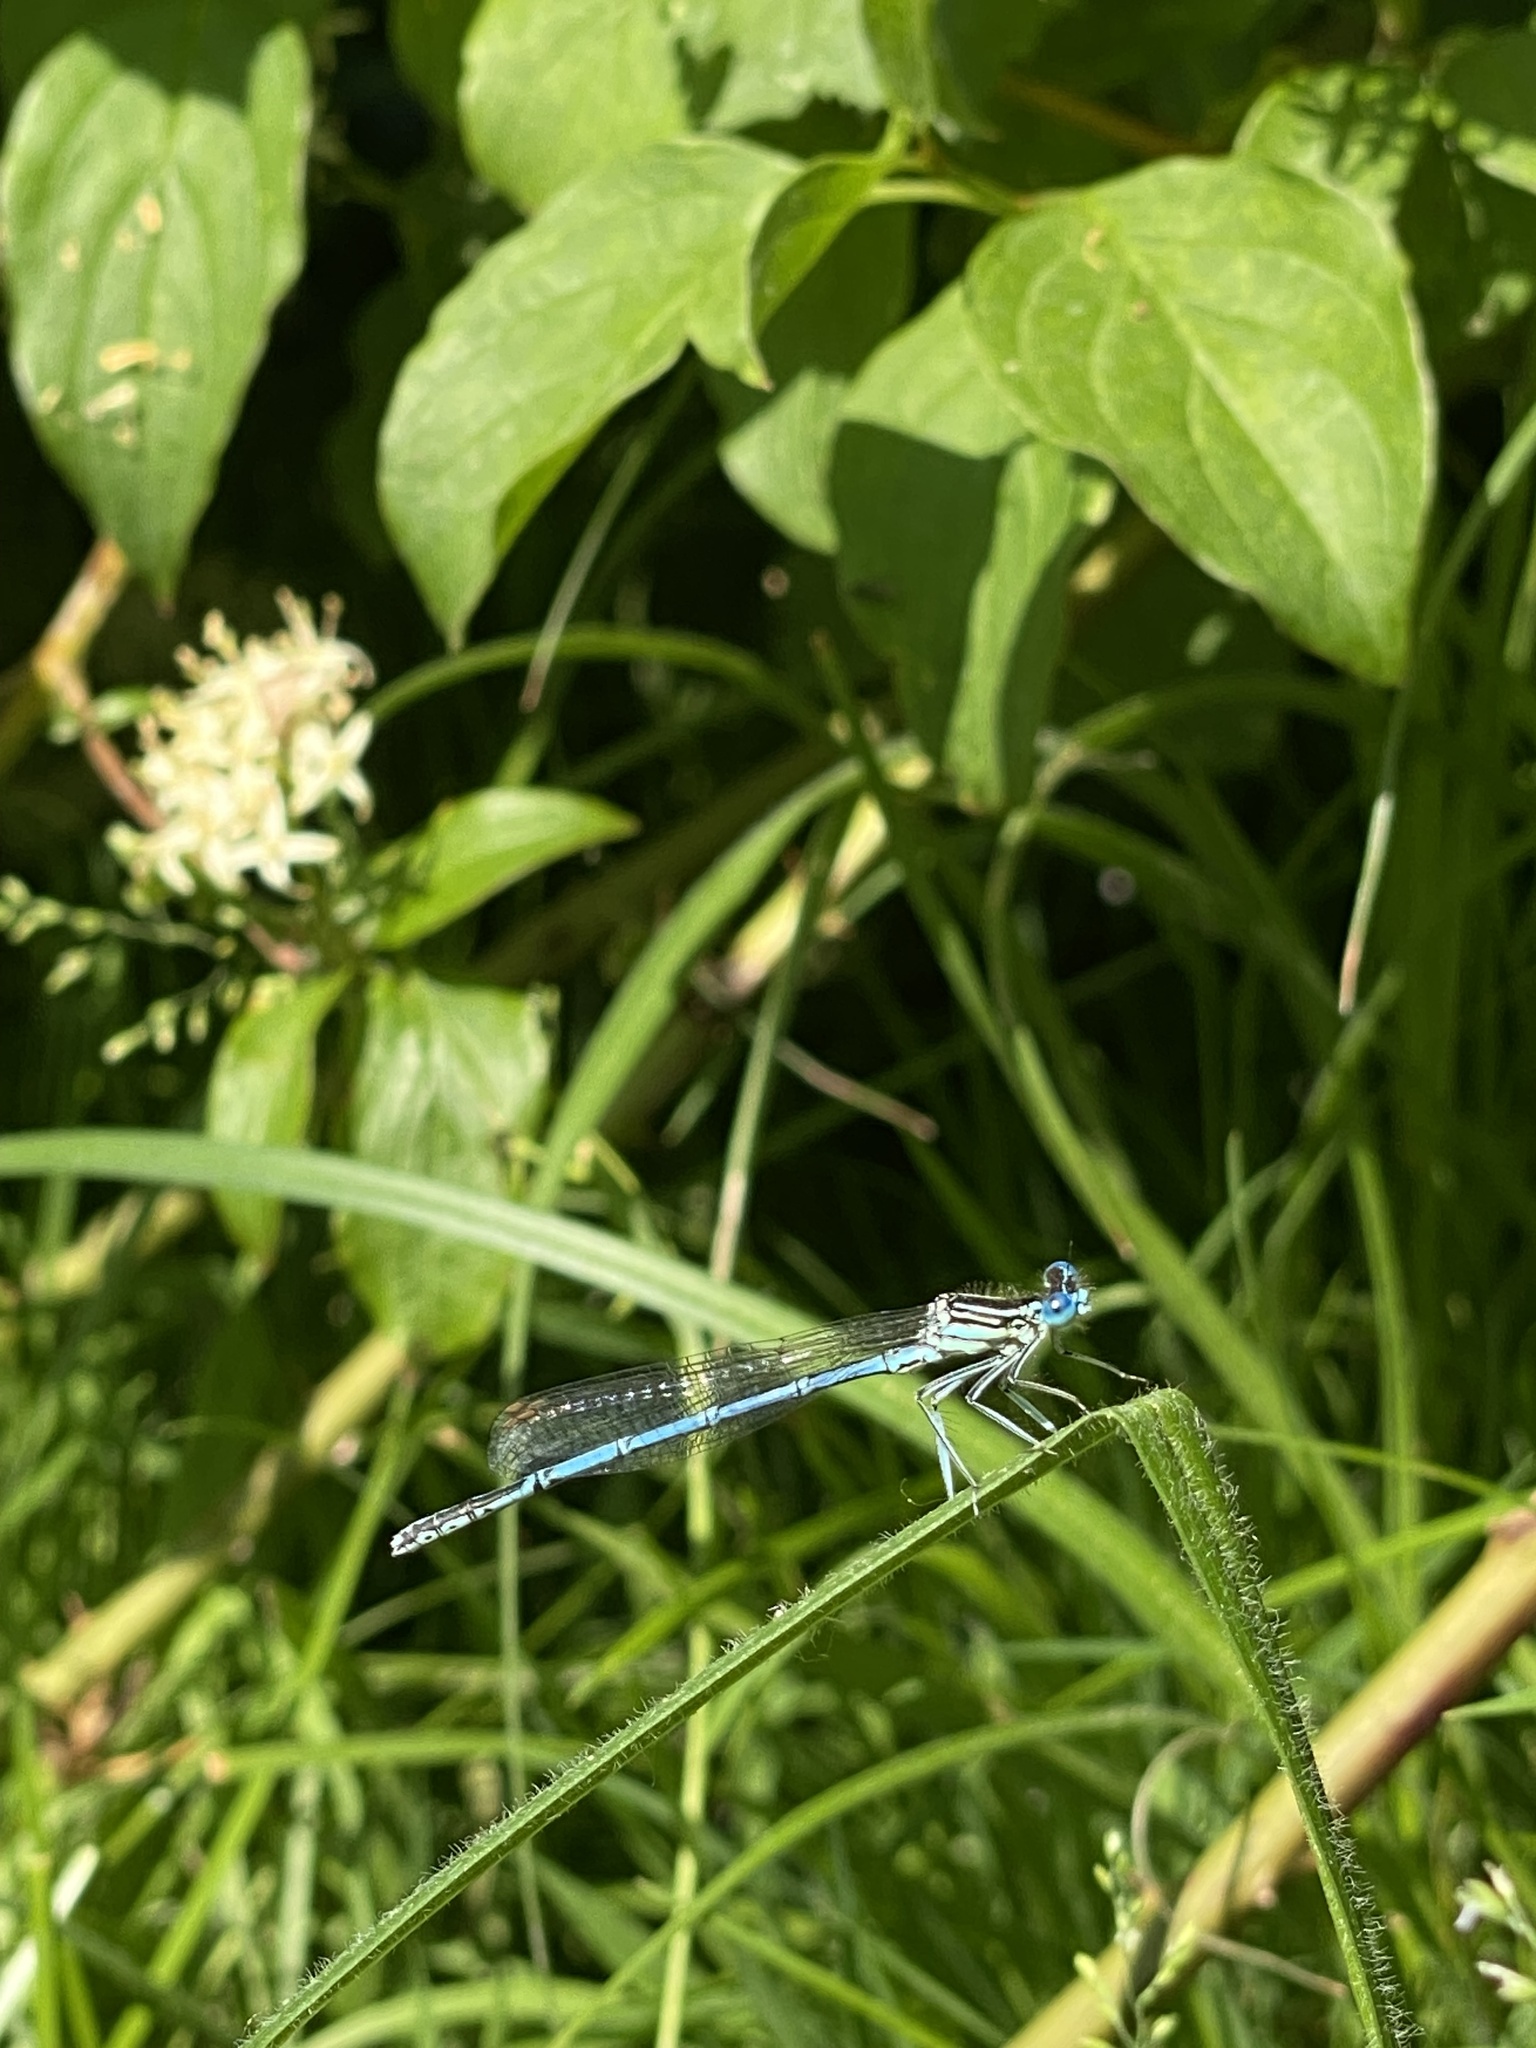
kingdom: Animalia
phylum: Arthropoda
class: Insecta
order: Odonata
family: Platycnemididae
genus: Platycnemis
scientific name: Platycnemis pennipes
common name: White-legged damselfly
